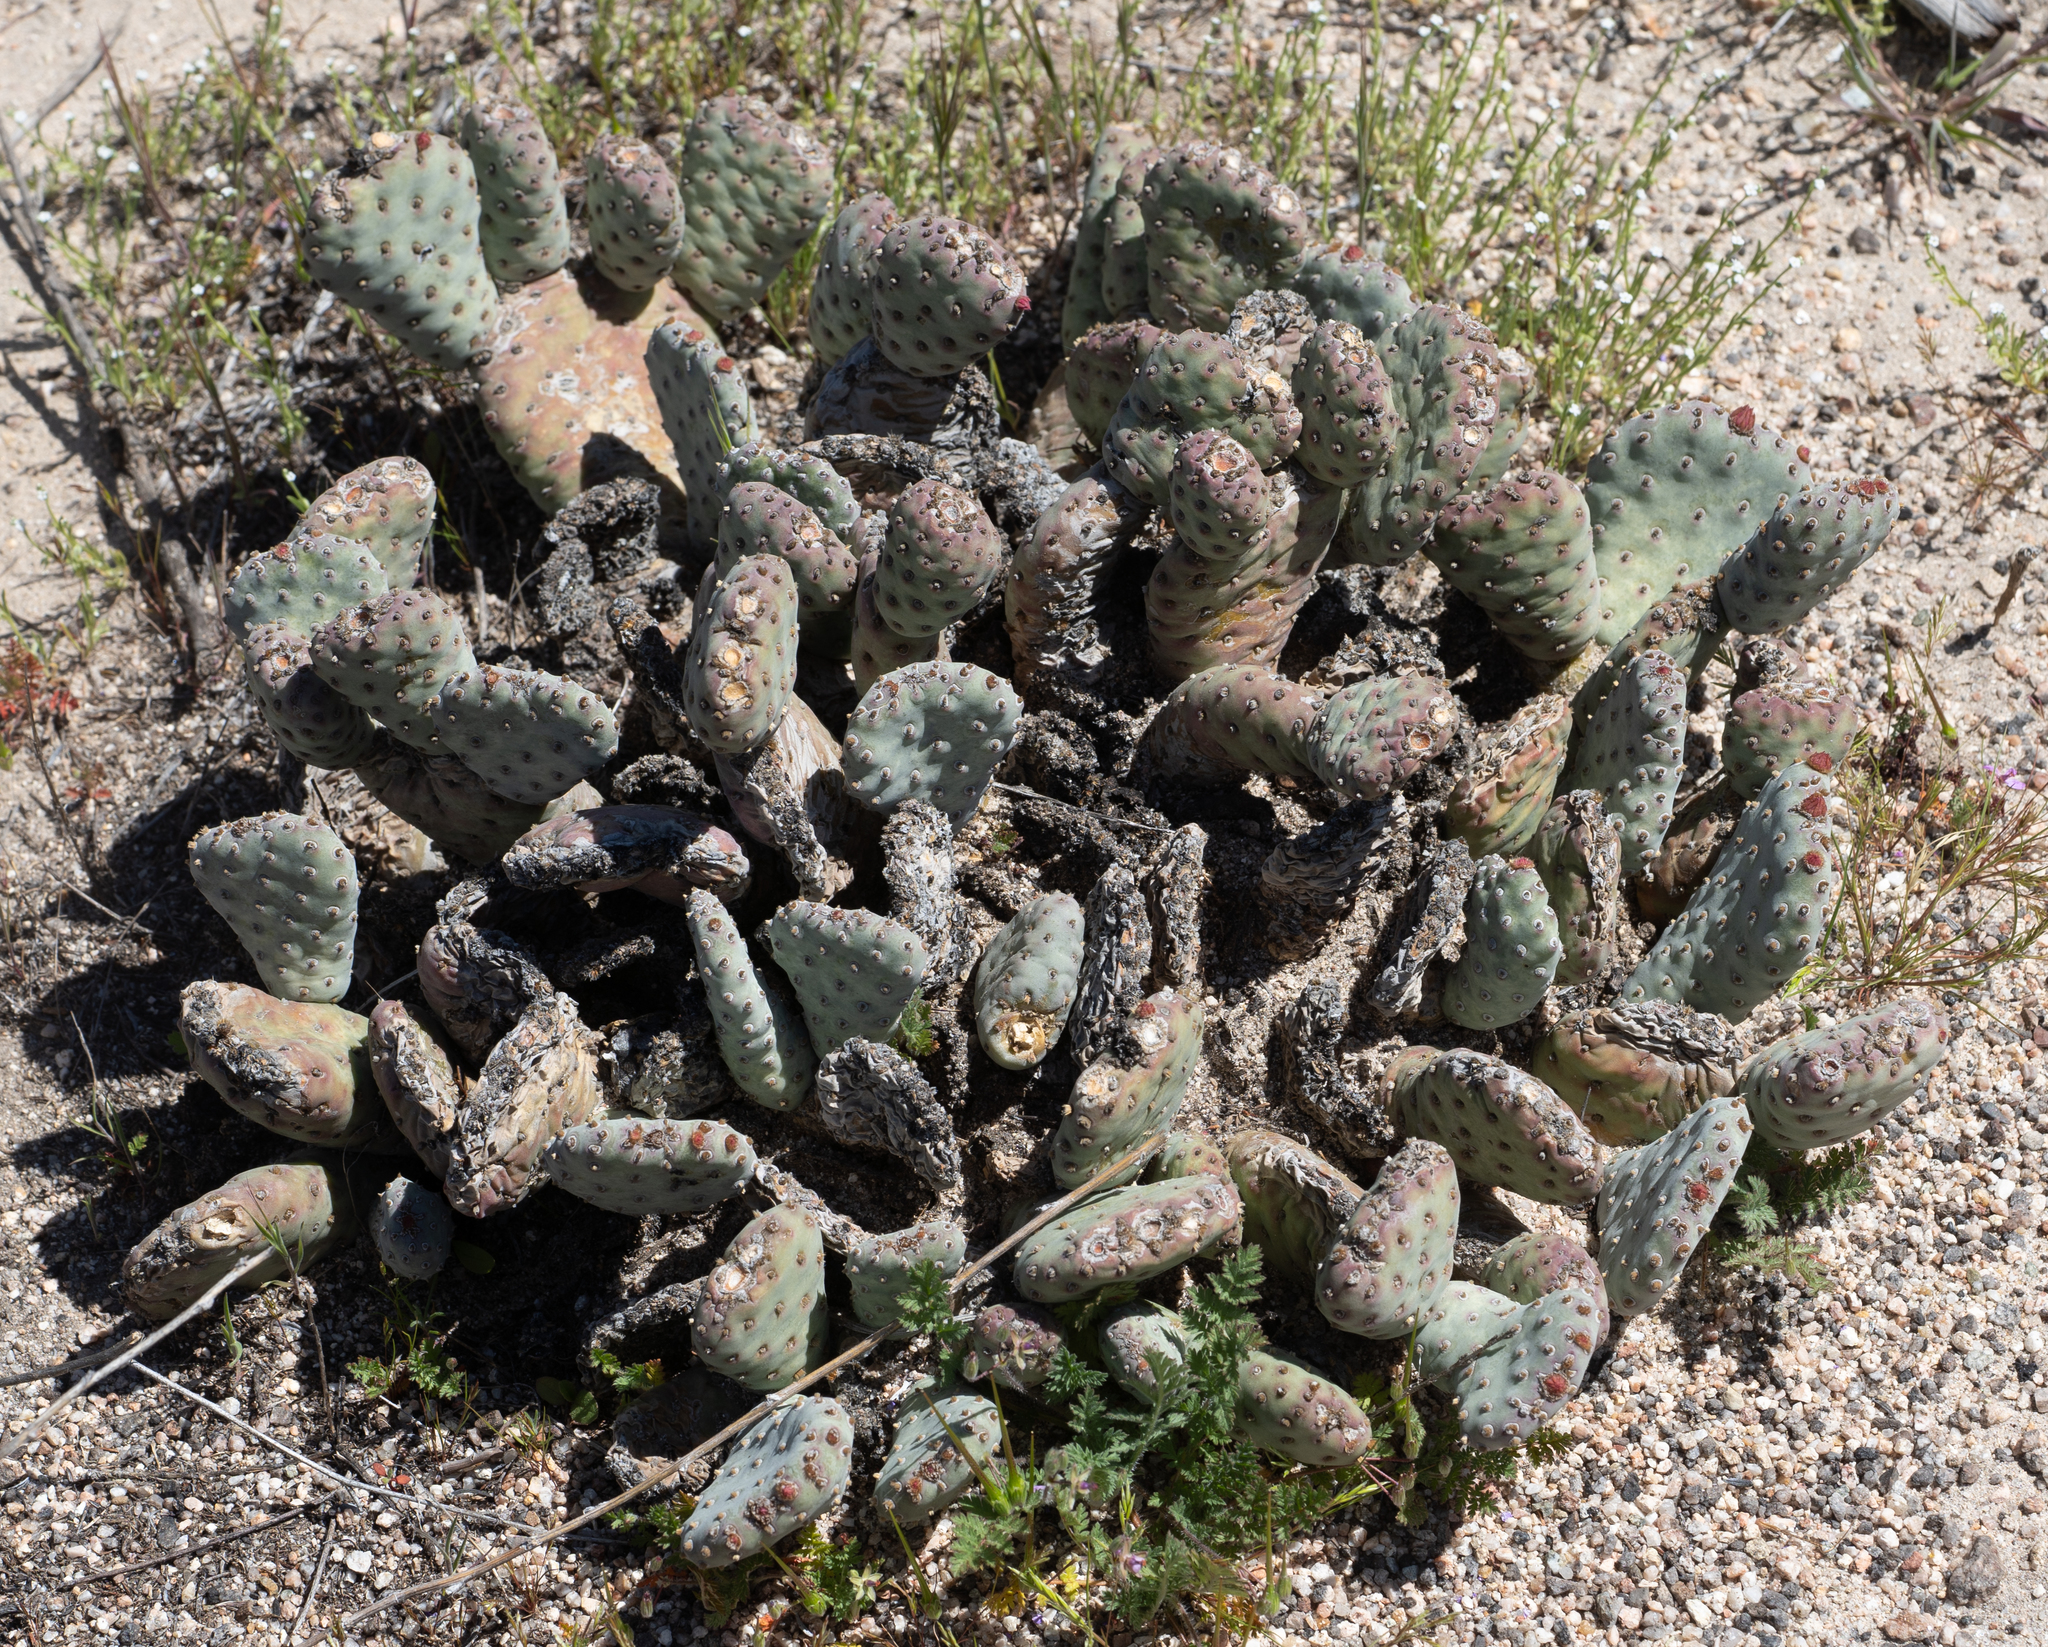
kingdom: Plantae
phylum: Tracheophyta
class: Magnoliopsida
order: Caryophyllales
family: Cactaceae
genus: Opuntia
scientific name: Opuntia basilaris
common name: Beavertail prickly-pear
